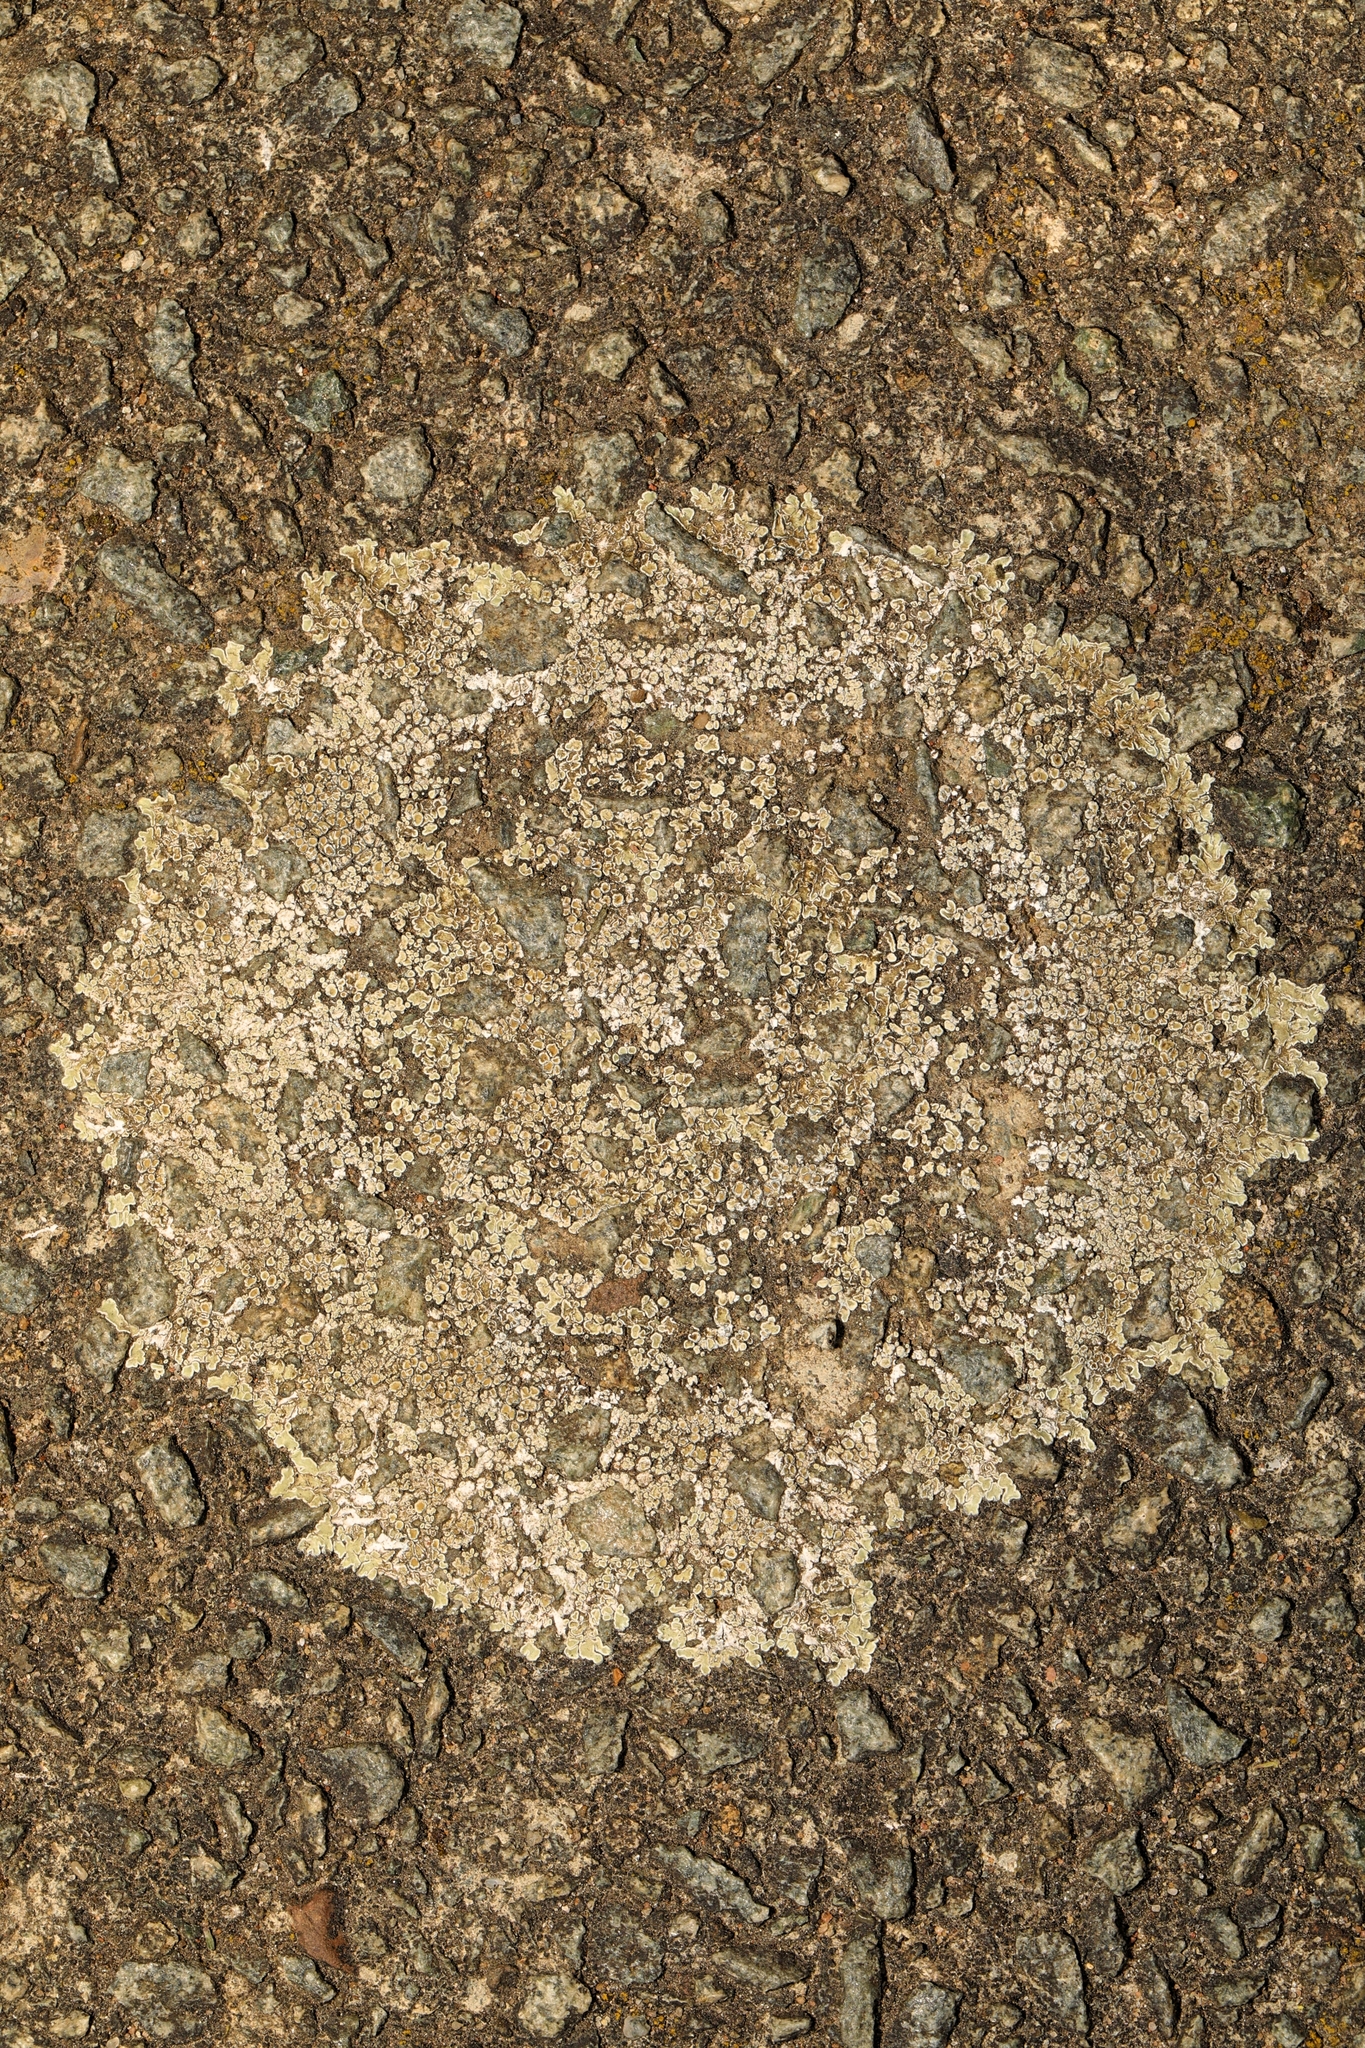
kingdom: Fungi
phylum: Ascomycota
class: Lecanoromycetes
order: Lecanorales
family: Lecanoraceae
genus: Protoparmeliopsis
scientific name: Protoparmeliopsis muralis
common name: Stonewall rim lichen
